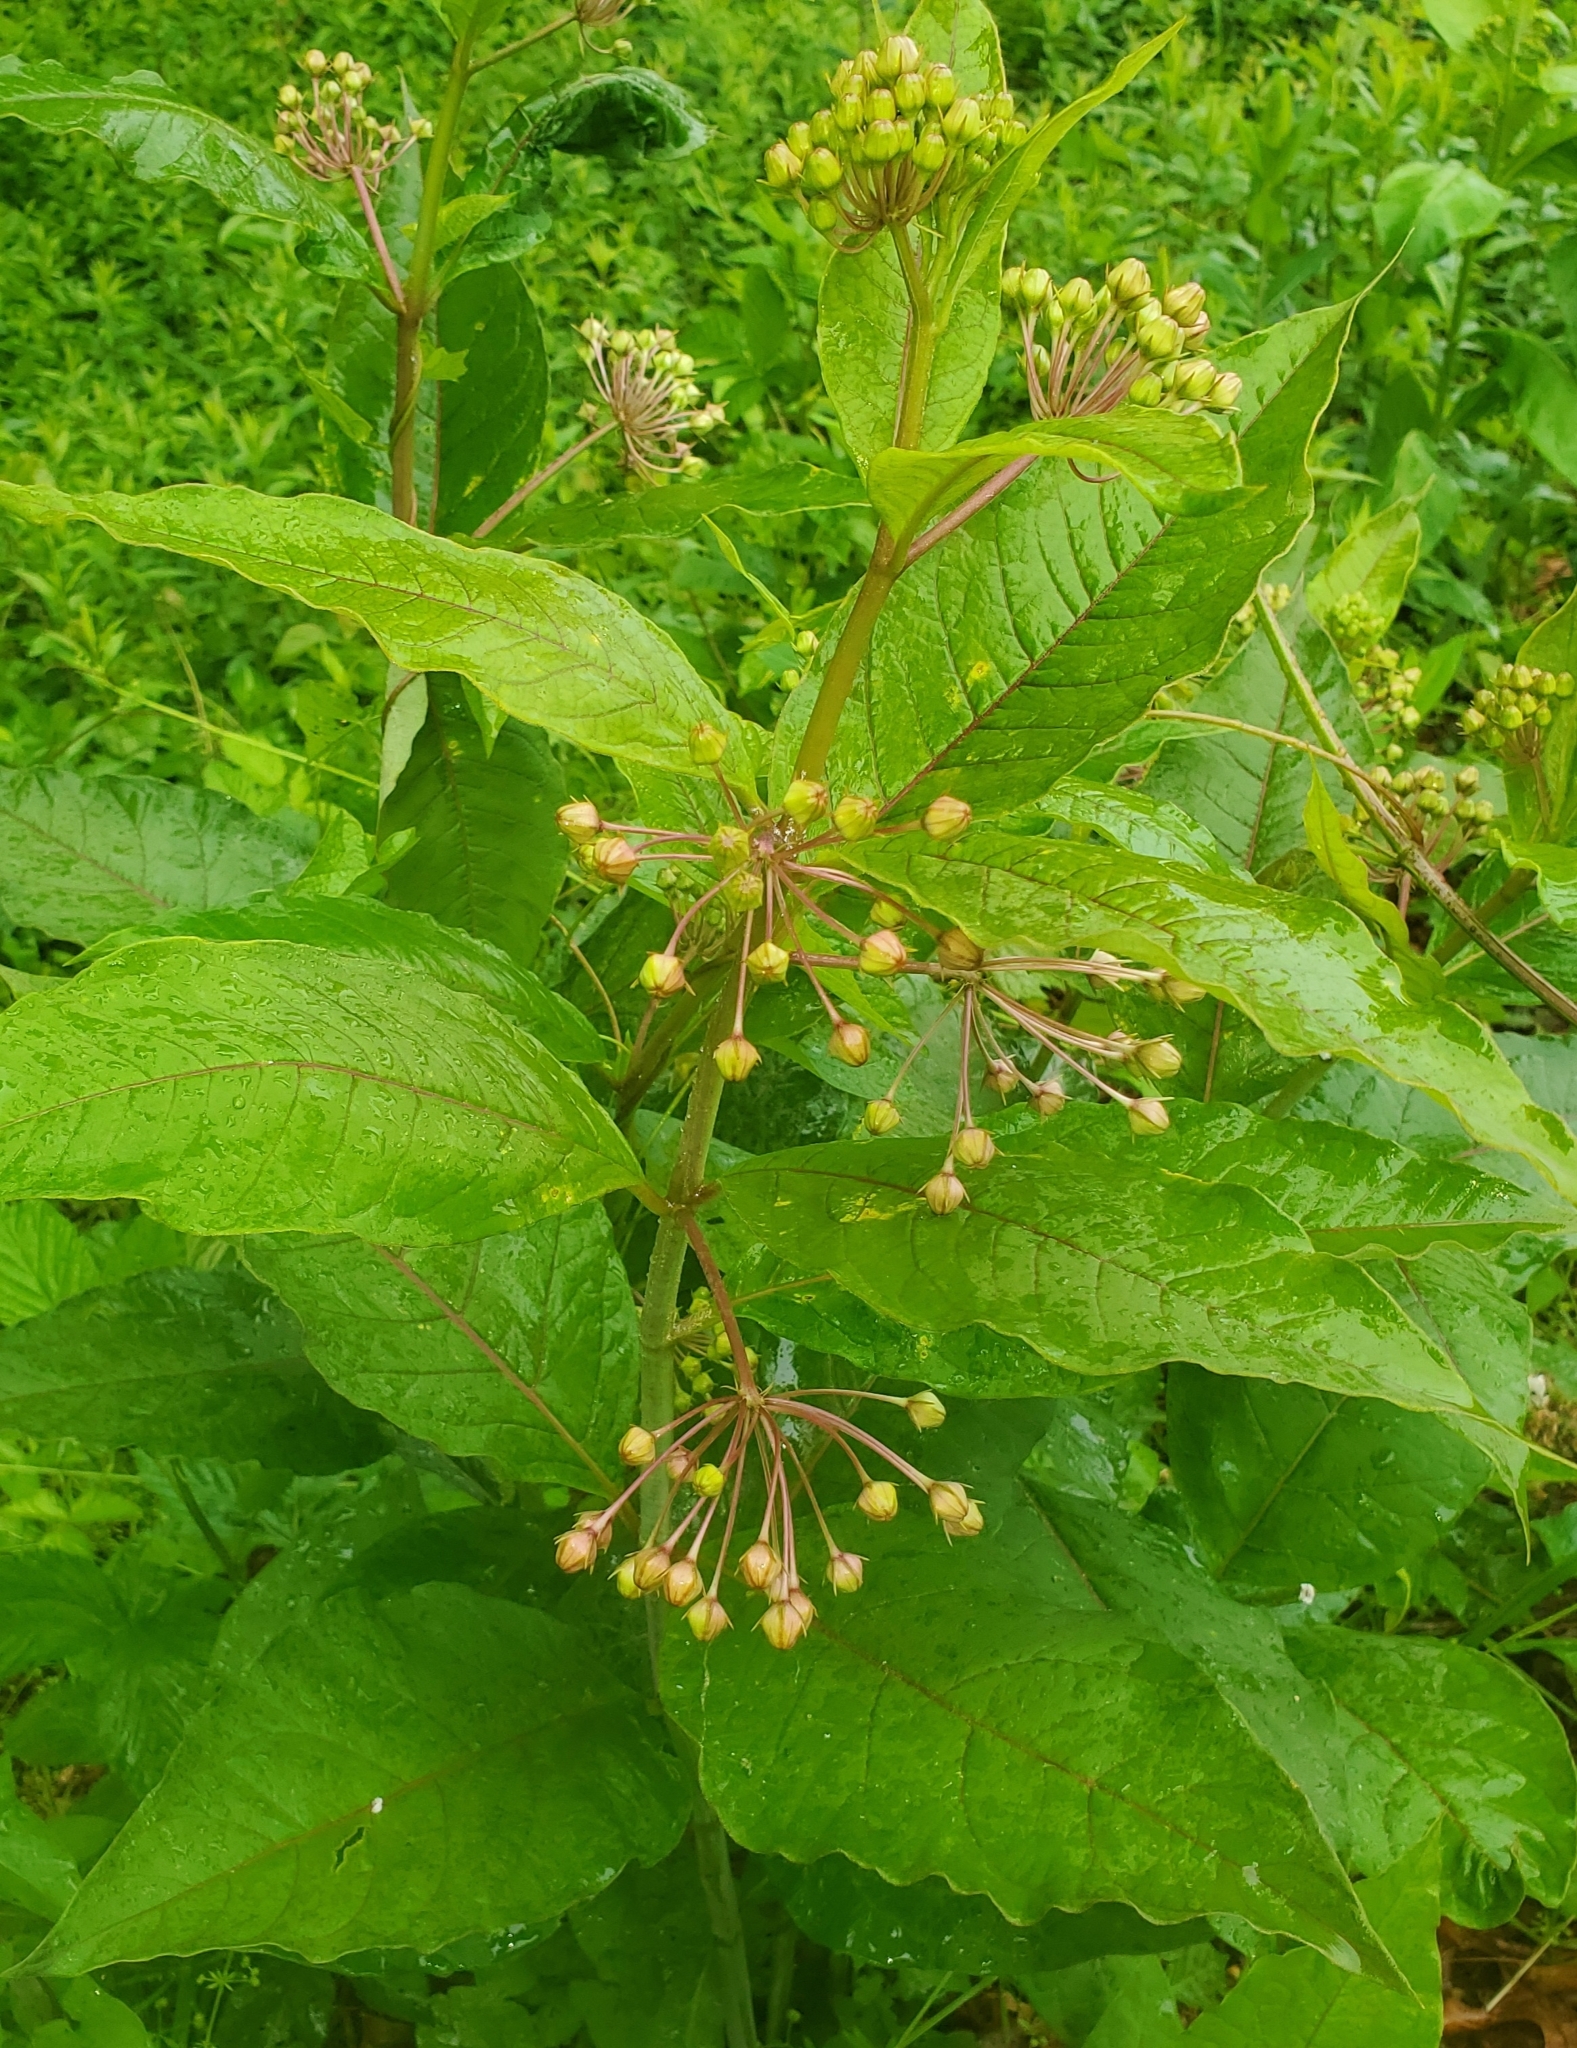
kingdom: Plantae
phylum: Tracheophyta
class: Magnoliopsida
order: Gentianales
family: Apocynaceae
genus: Asclepias
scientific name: Asclepias exaltata
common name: Poke milkweed
